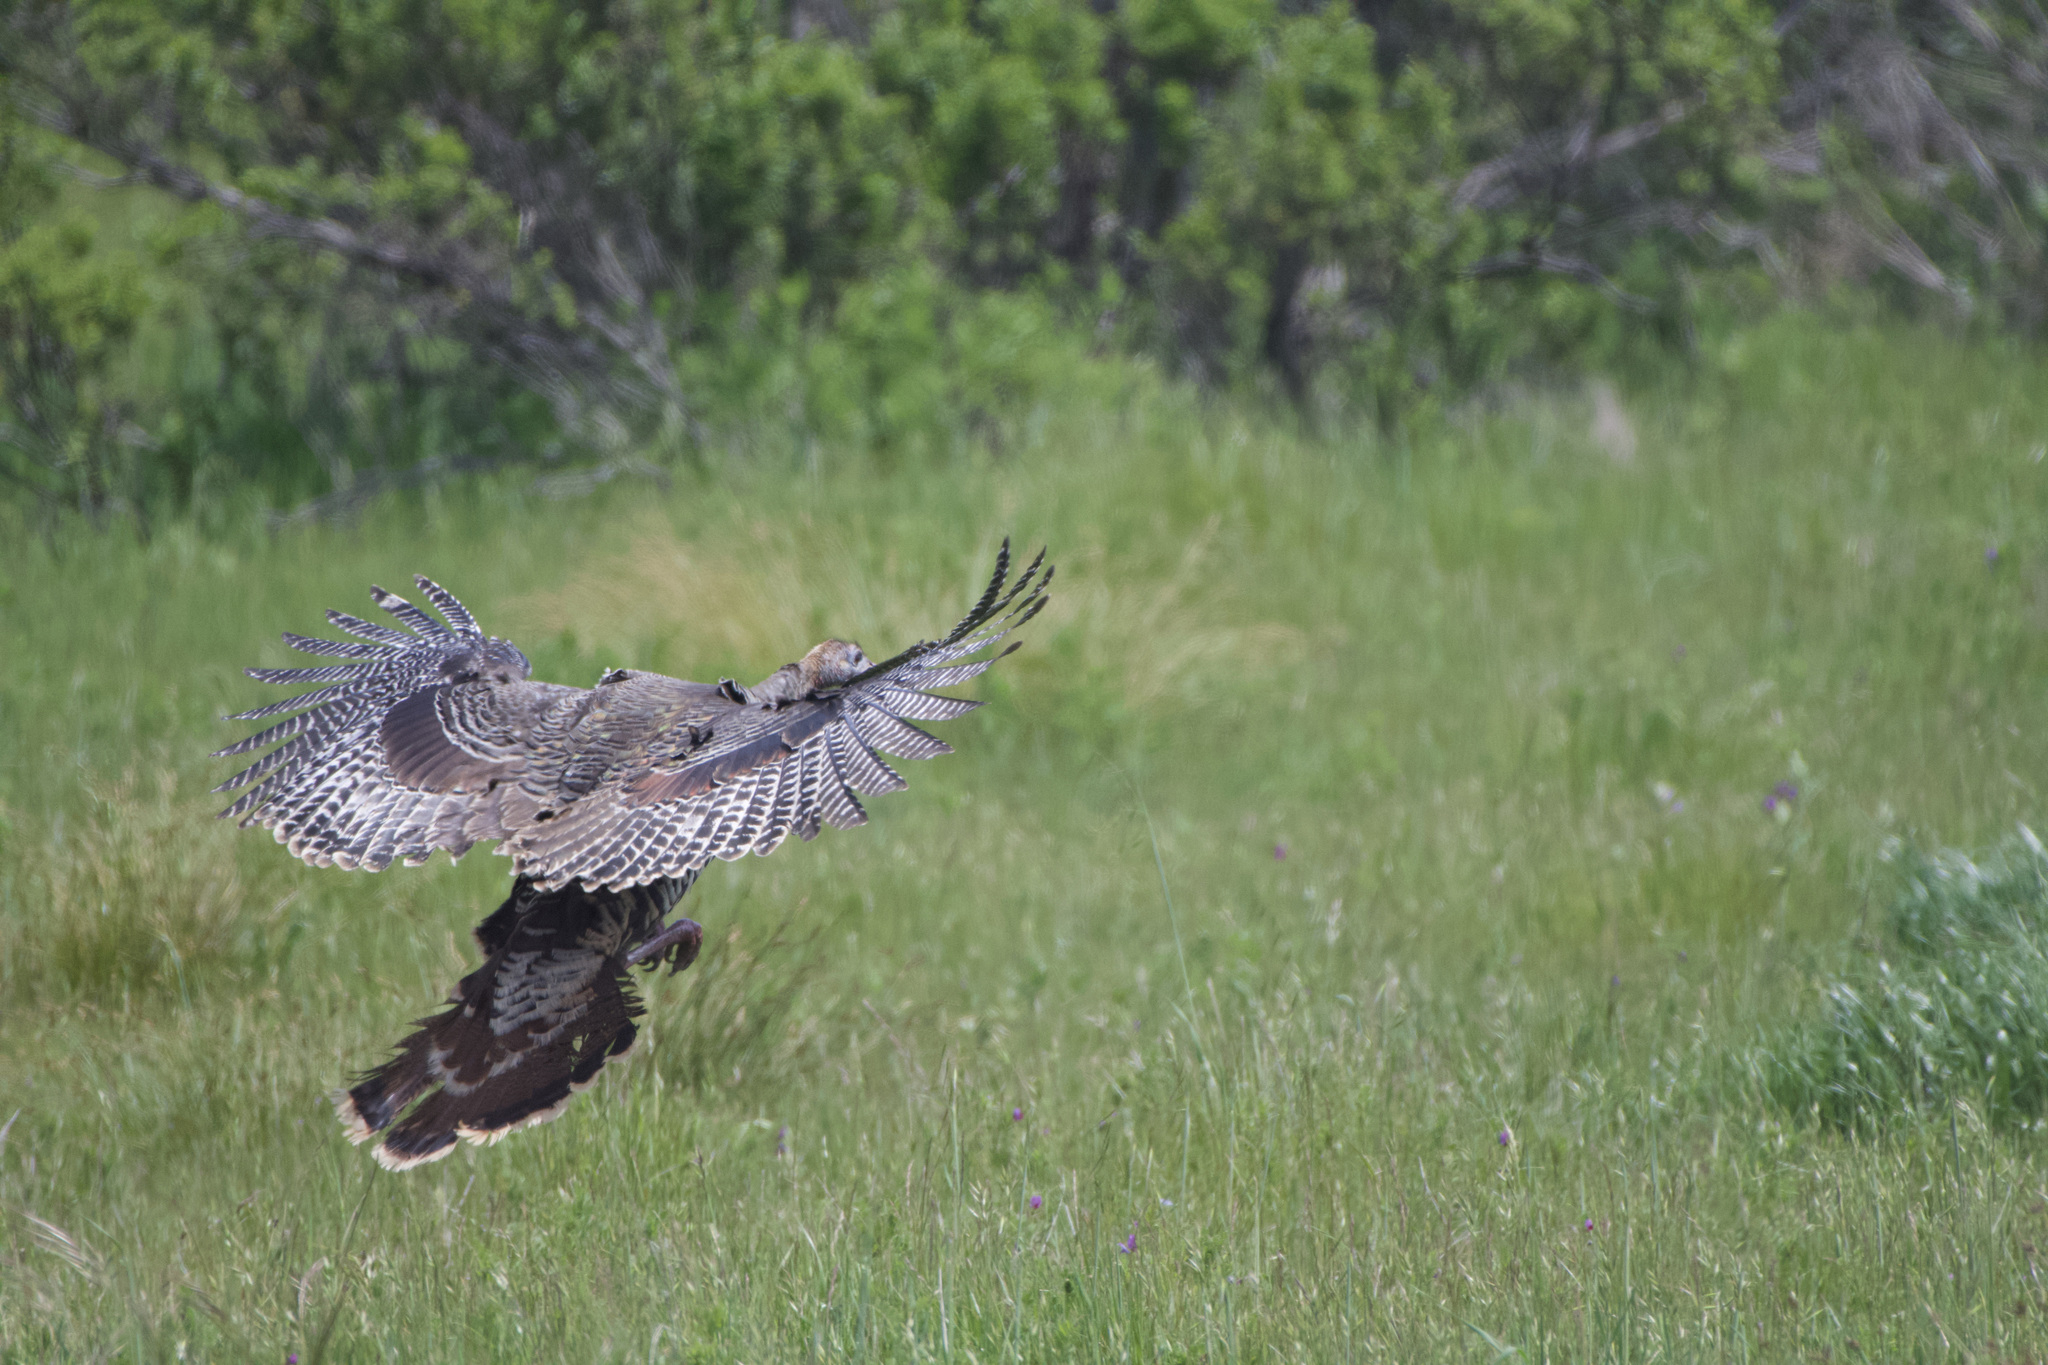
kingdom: Animalia
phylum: Chordata
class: Aves
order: Galliformes
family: Phasianidae
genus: Meleagris
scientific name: Meleagris gallopavo
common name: Wild turkey
